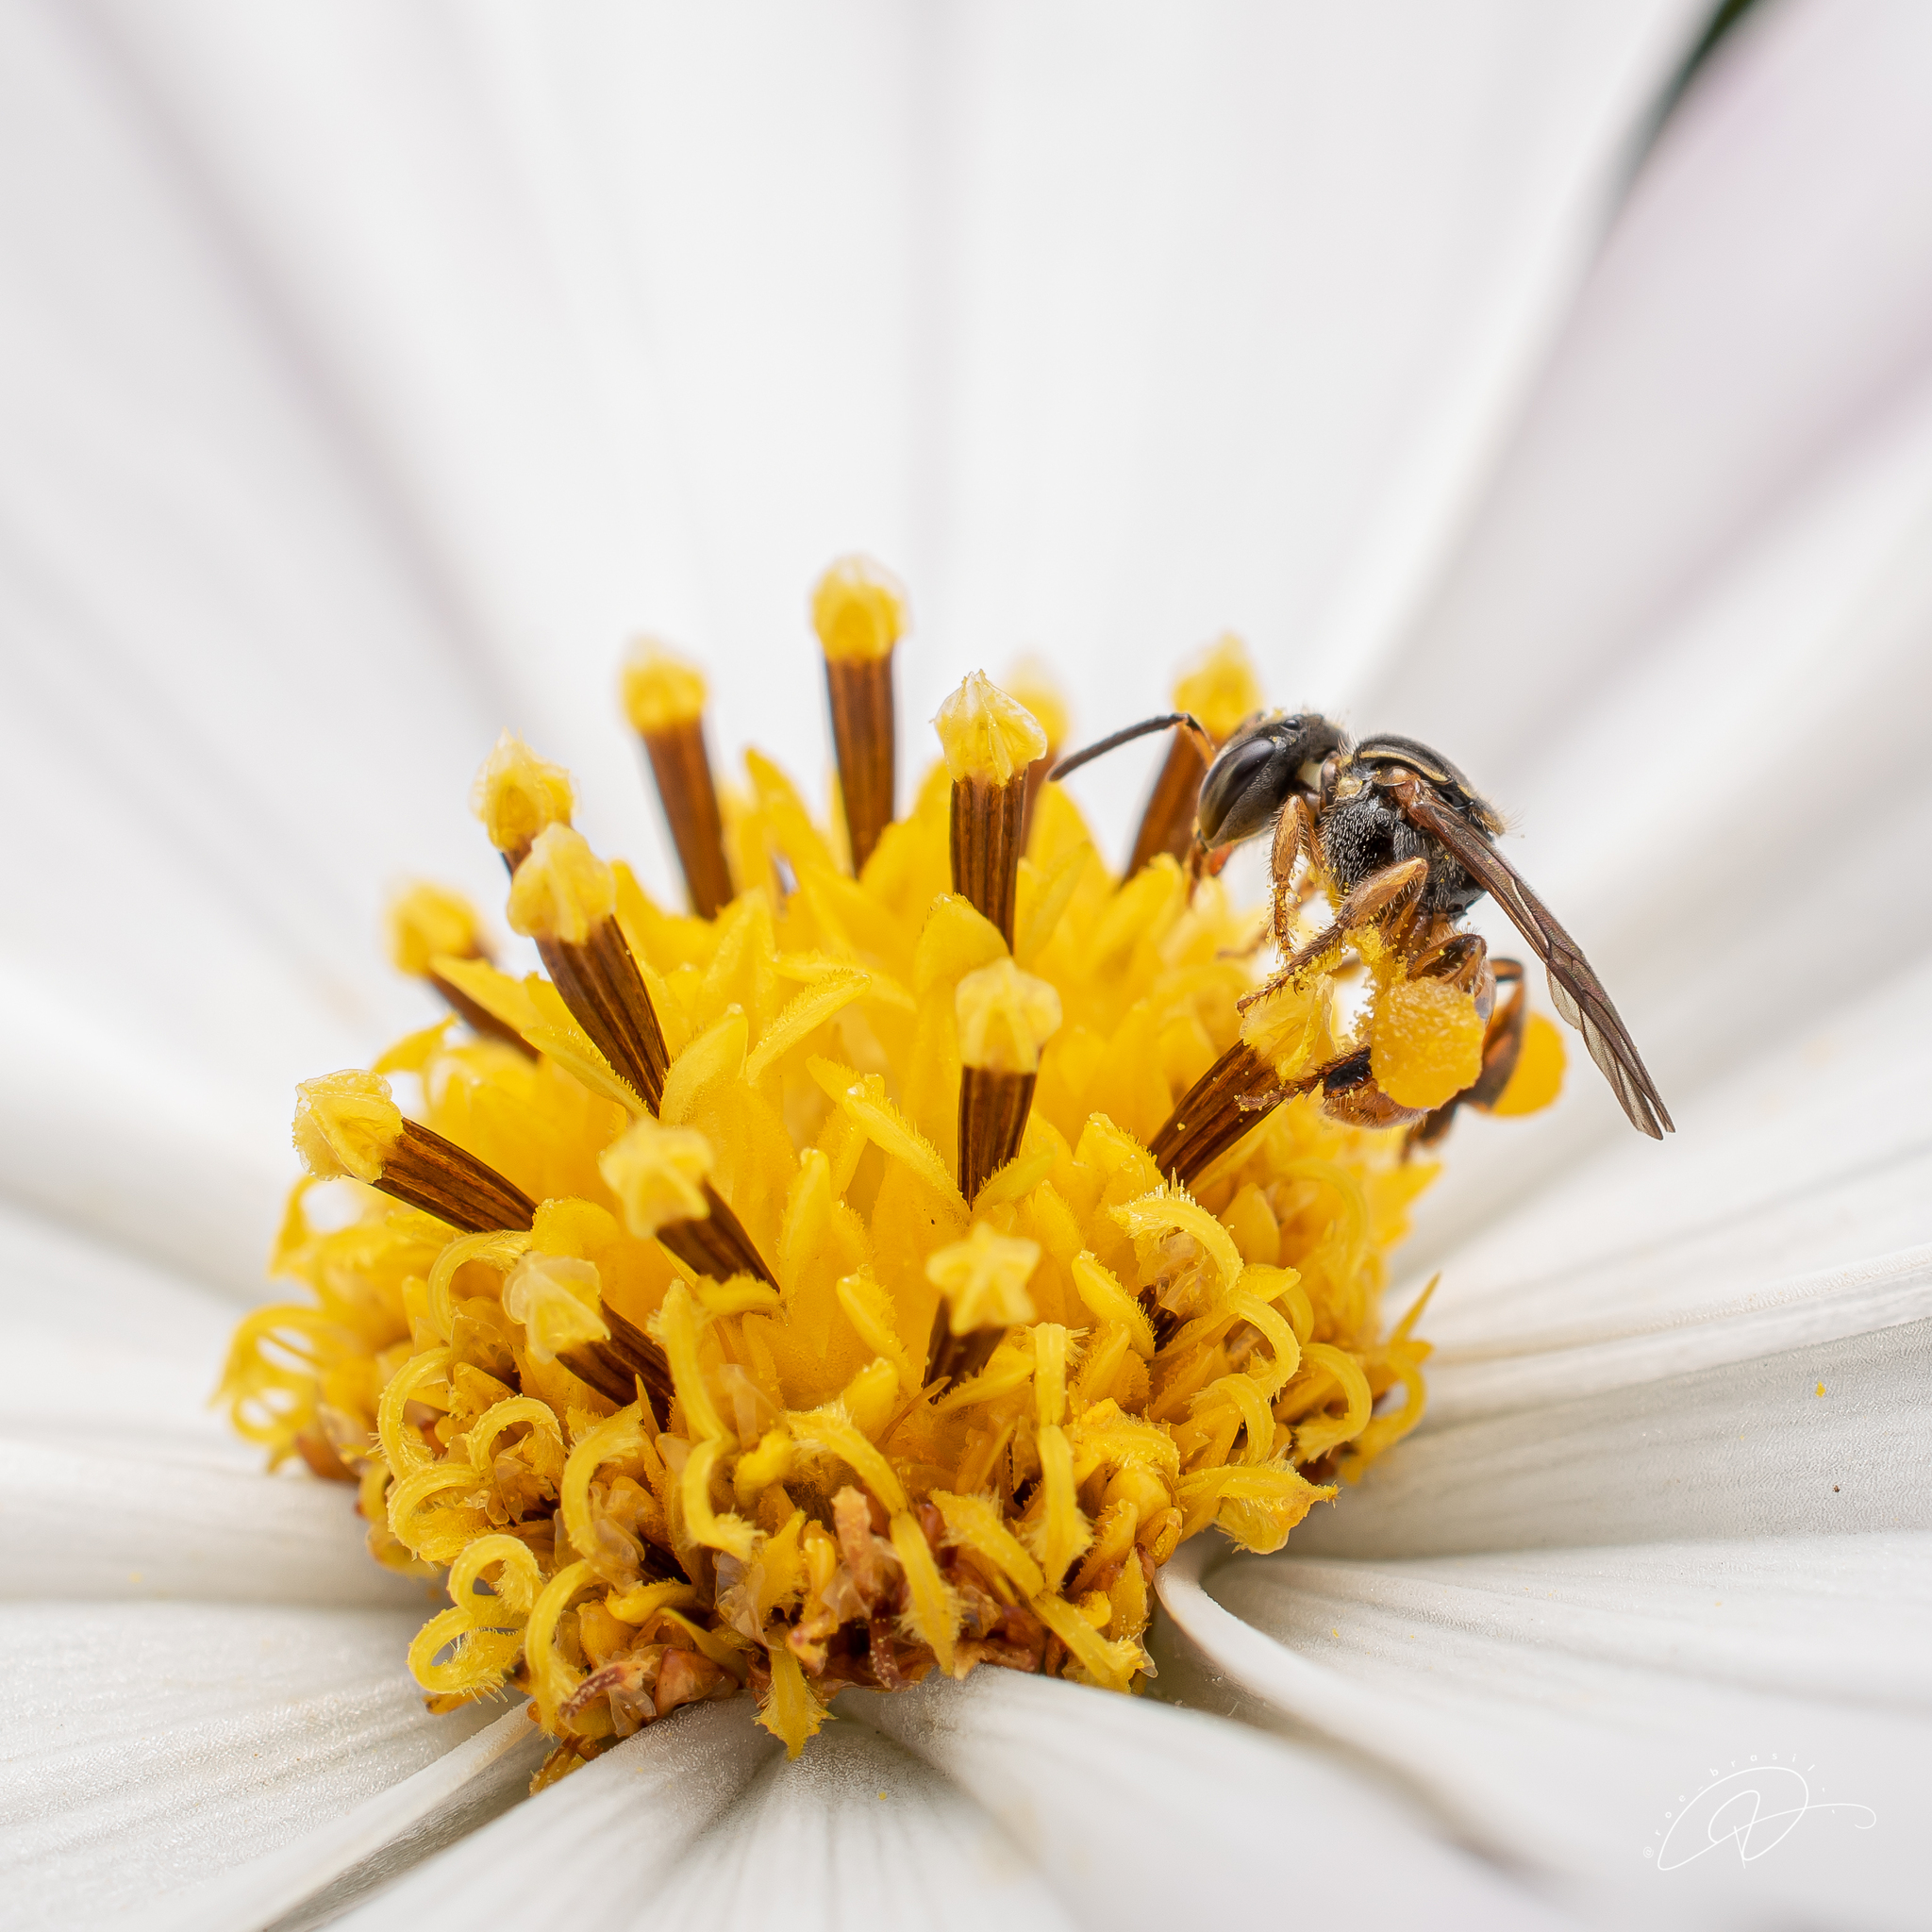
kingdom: Animalia
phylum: Arthropoda
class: Insecta
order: Hymenoptera
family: Apidae
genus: Plebeia
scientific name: Plebeia emerina
